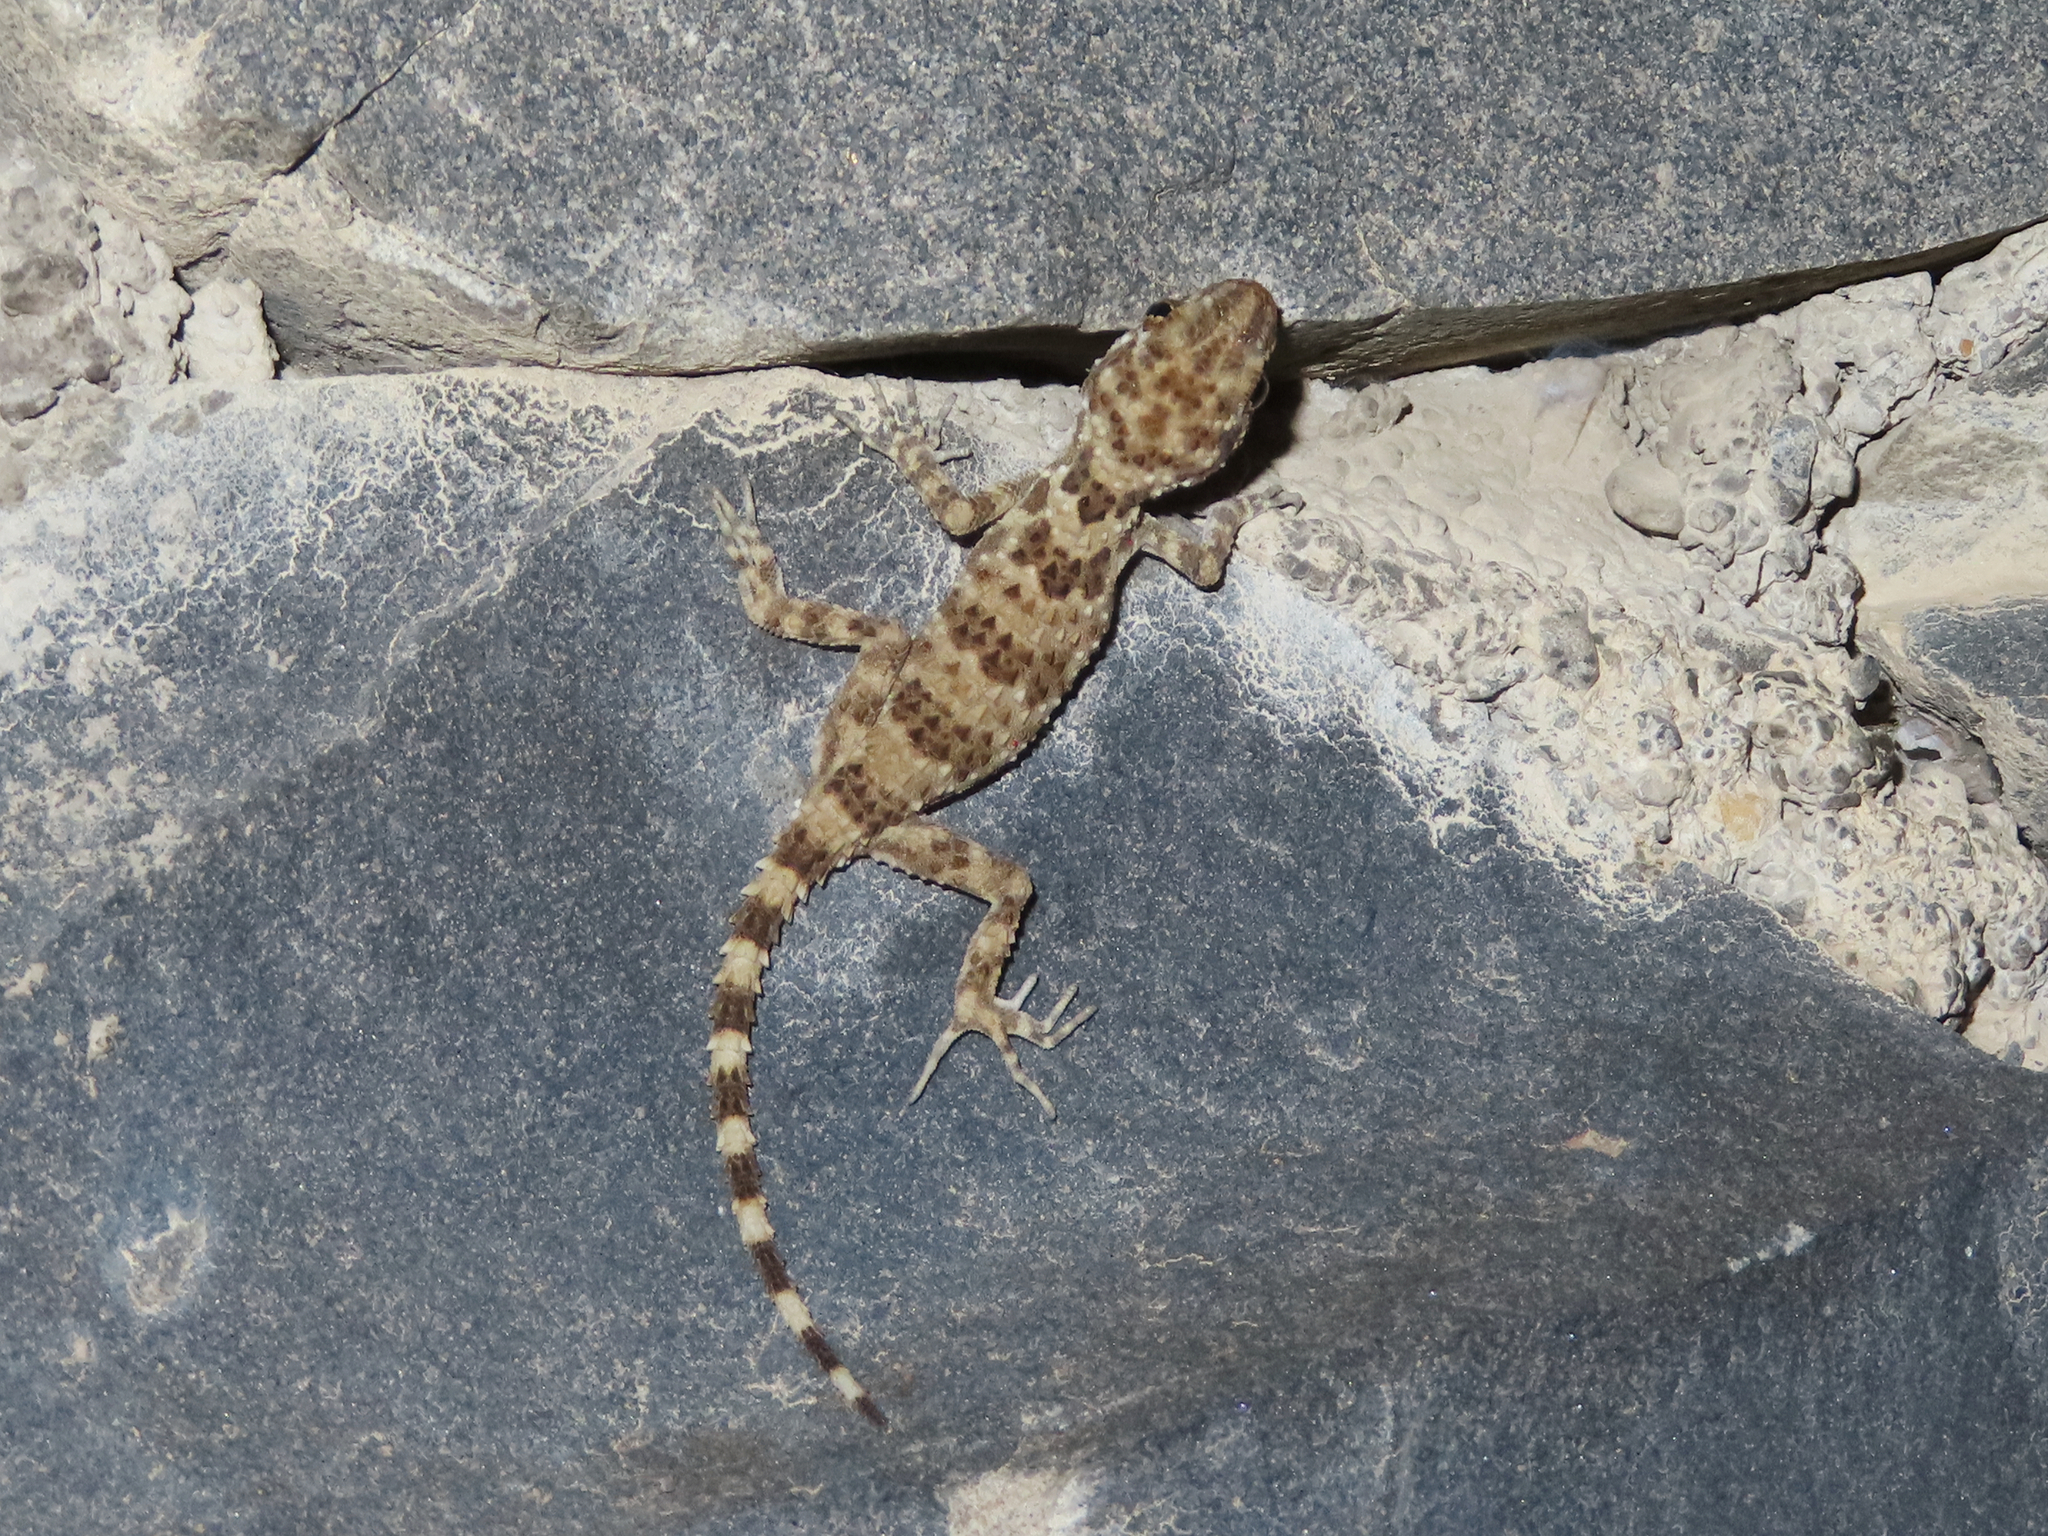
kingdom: Animalia
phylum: Chordata
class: Squamata
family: Gekkonidae
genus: Tenuidactylus
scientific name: Tenuidactylus caspius
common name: Caspian bent-toed gecko
